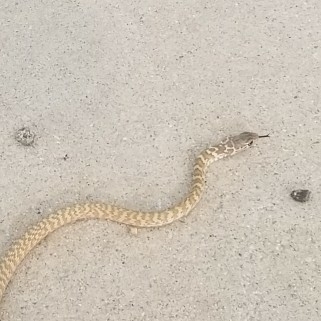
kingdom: Animalia
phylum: Chordata
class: Squamata
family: Colubridae
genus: Masticophis
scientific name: Masticophis flagellum
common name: Coachwhip
